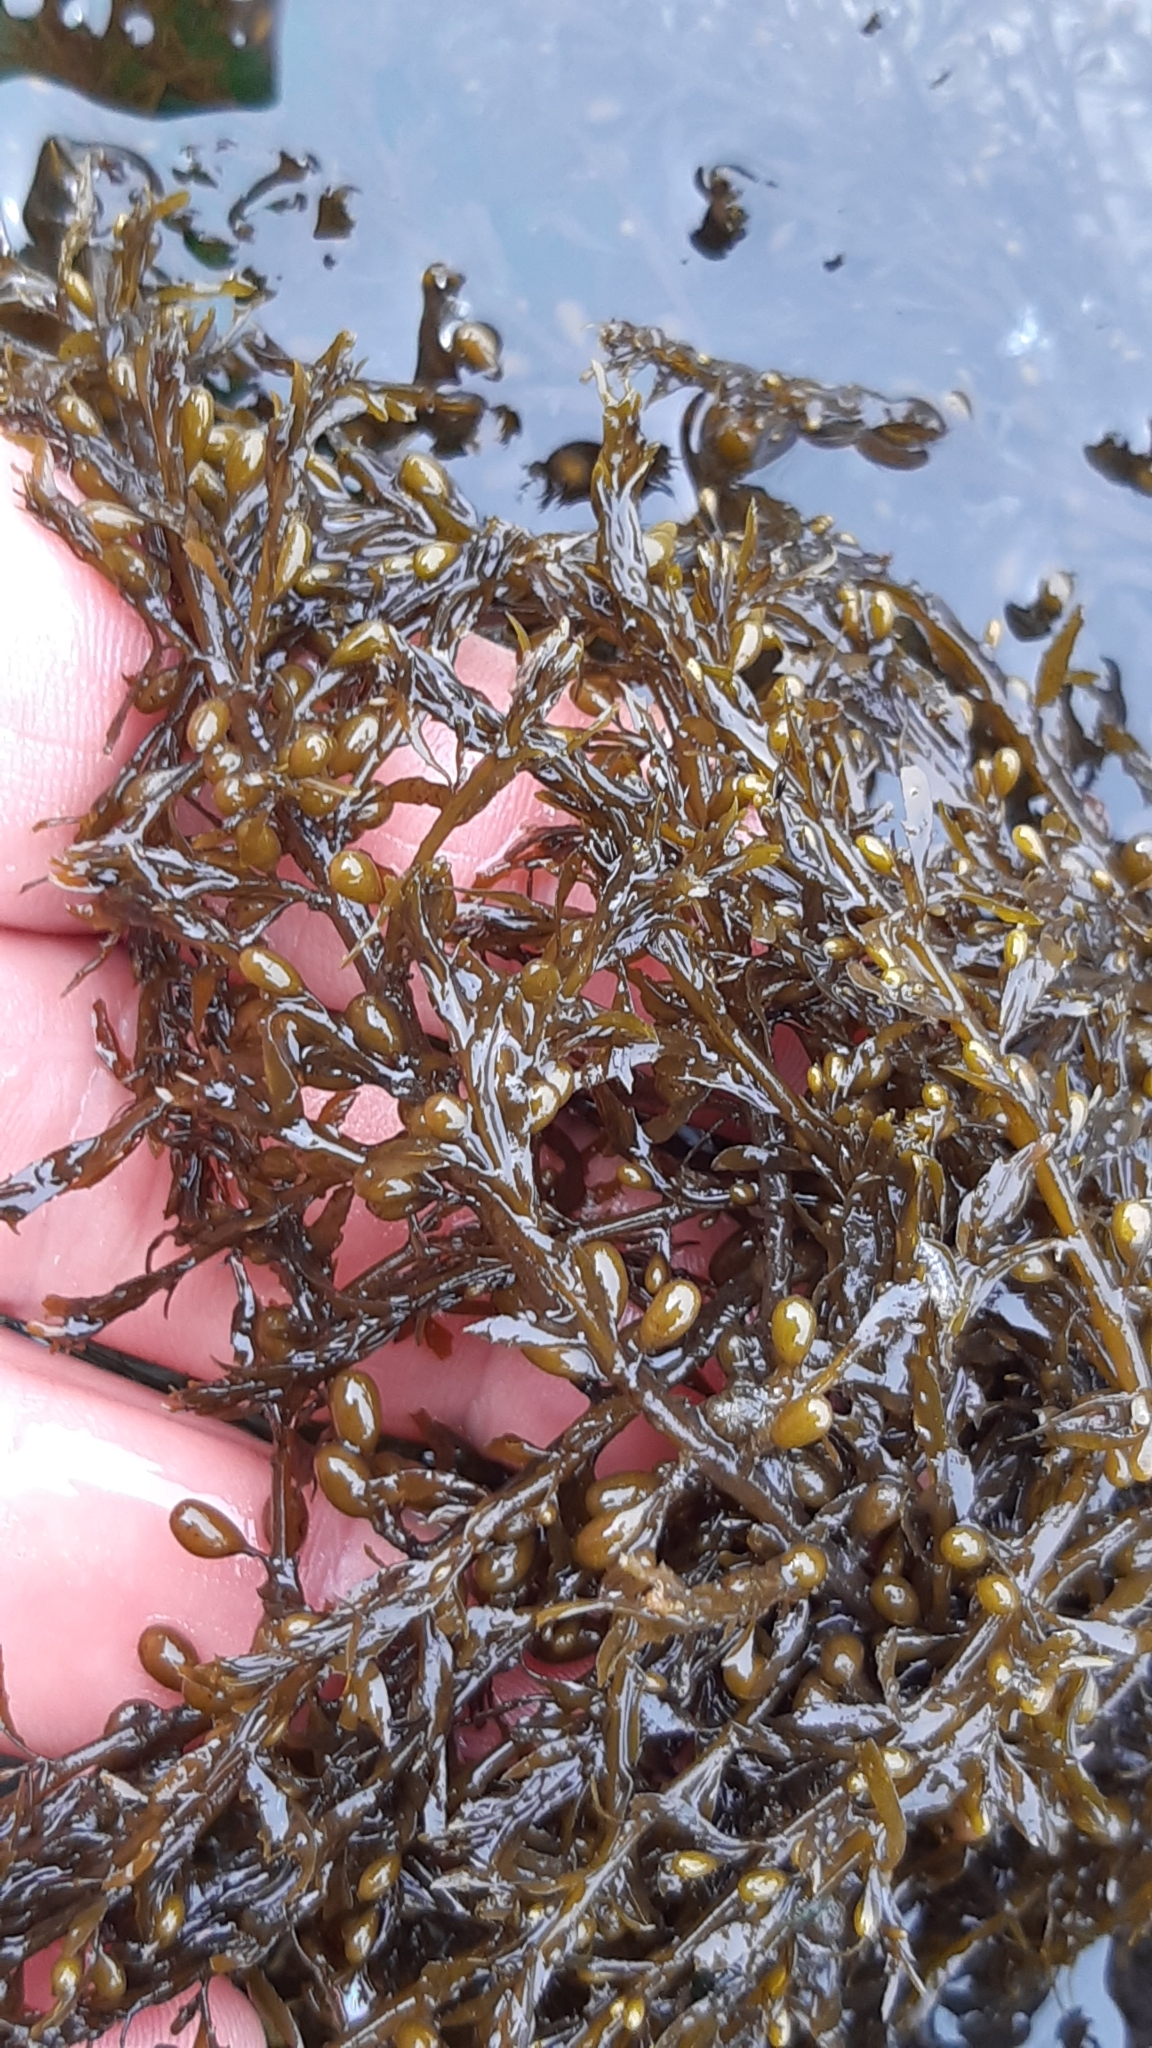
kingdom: Chromista
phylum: Ochrophyta
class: Phaeophyceae
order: Fucales
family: Sargassaceae
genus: Sargassum
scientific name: Sargassum muticum
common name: Japweed
